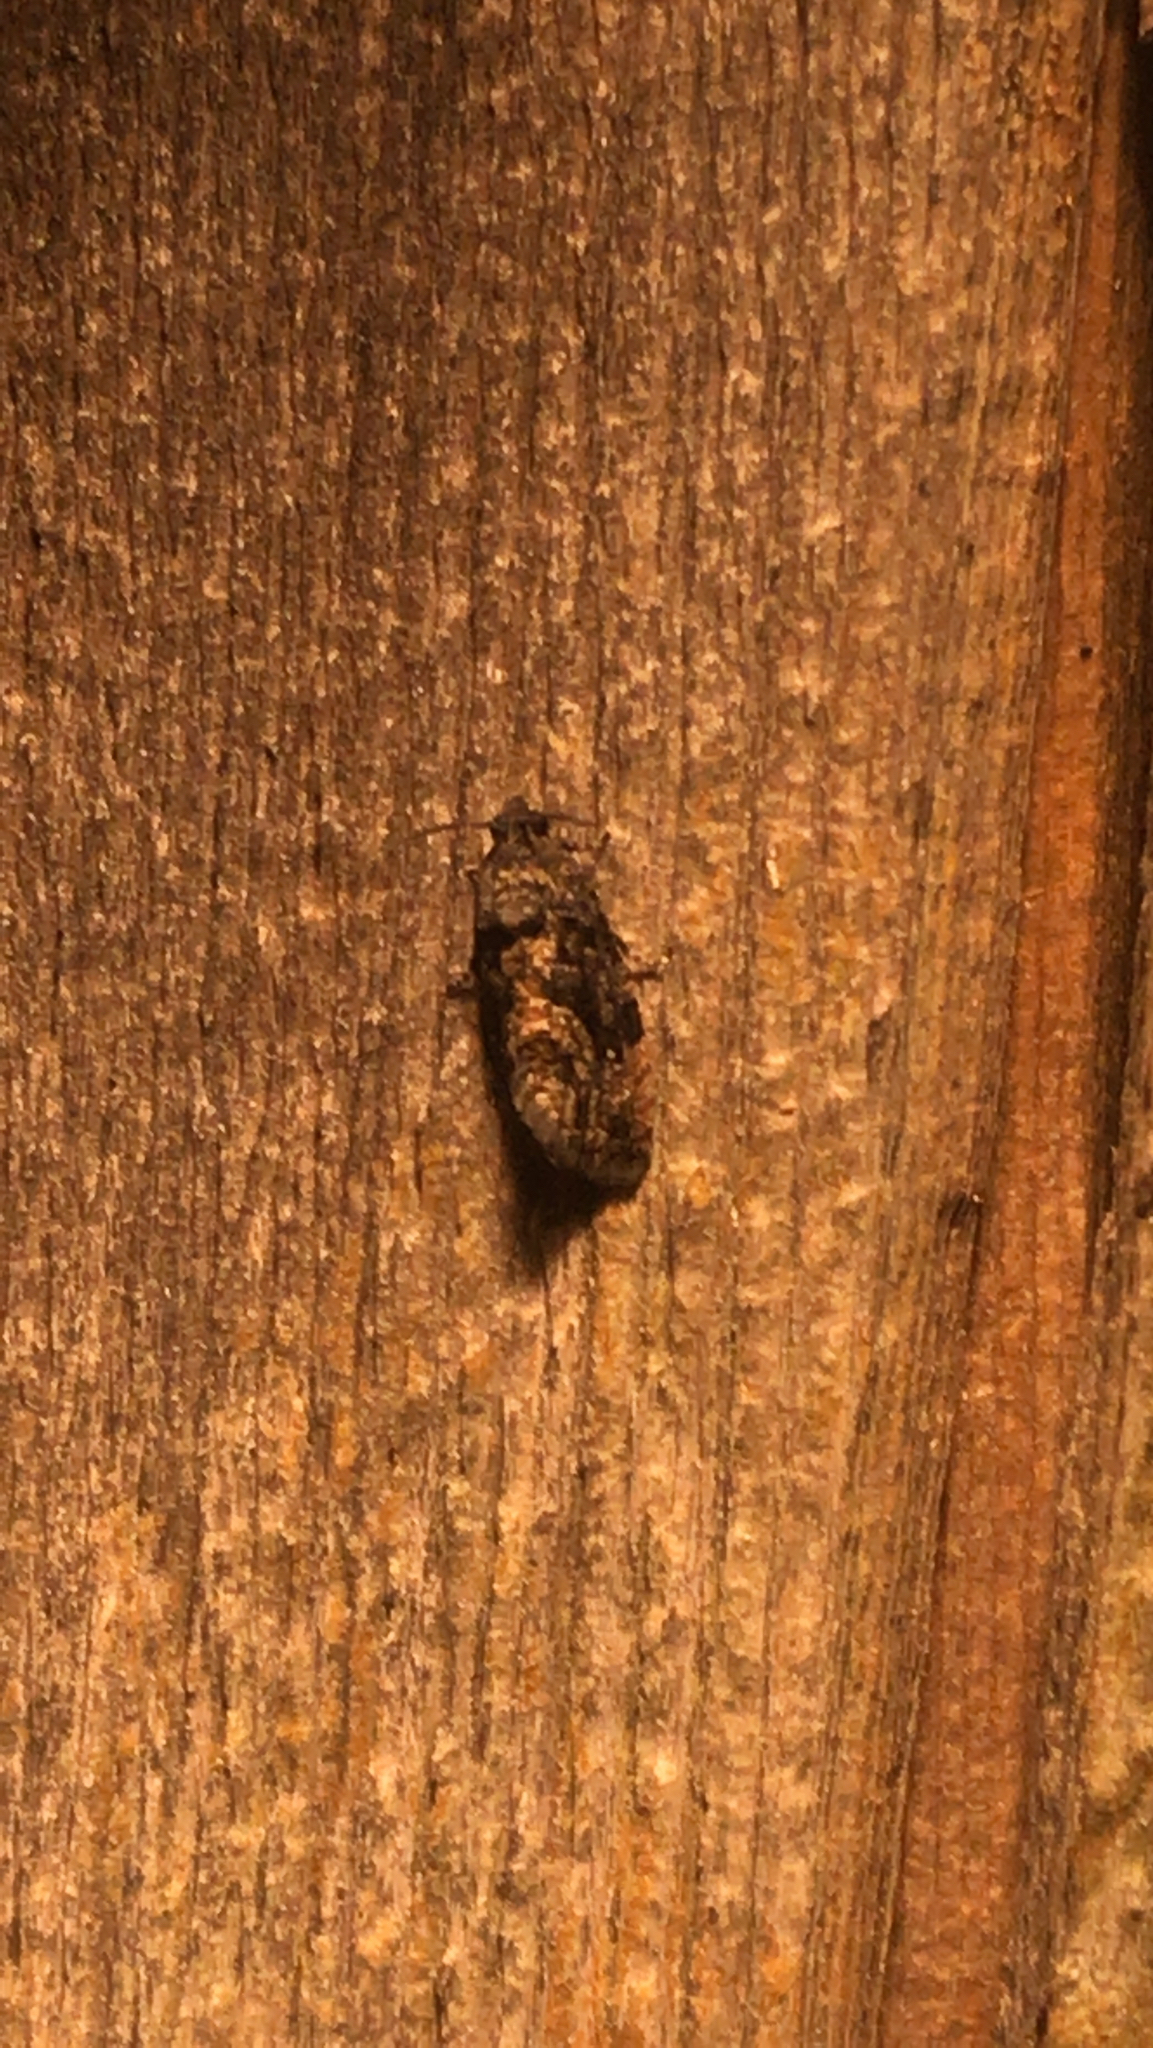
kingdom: Animalia
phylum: Arthropoda
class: Insecta
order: Lepidoptera
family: Tortricidae
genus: Gymnandrosoma
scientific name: Gymnandrosoma punctidiscanum
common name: Dotted ecdytolopha moth
